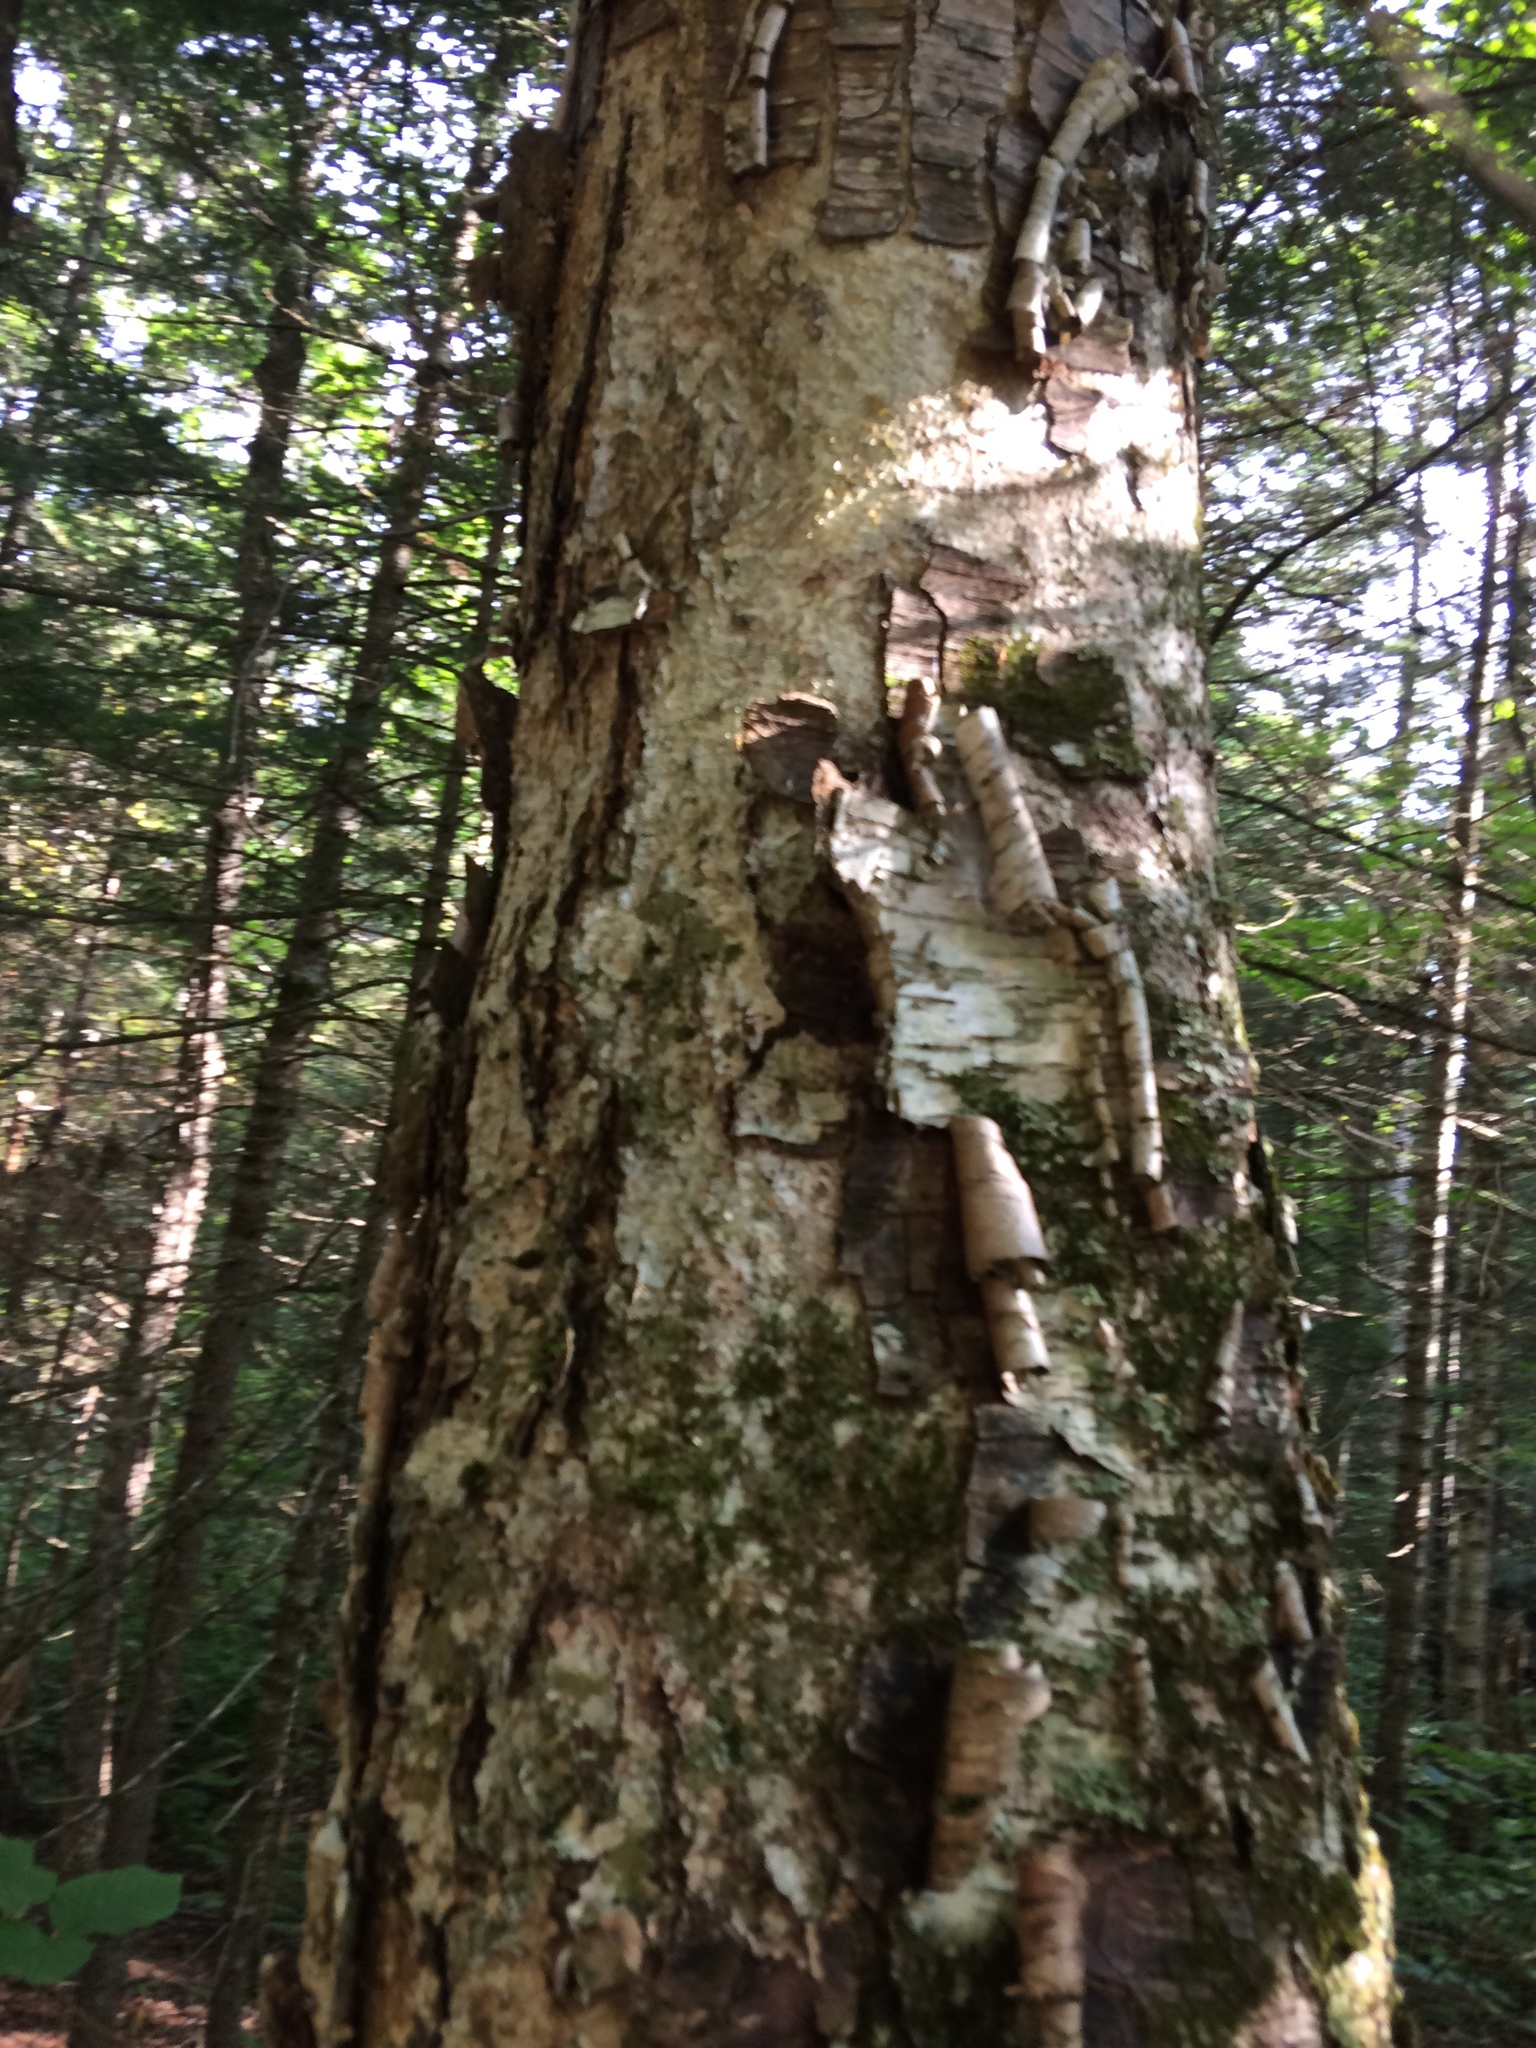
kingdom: Plantae
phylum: Tracheophyta
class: Magnoliopsida
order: Fagales
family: Betulaceae
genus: Betula
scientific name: Betula alleghaniensis
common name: Yellow birch
